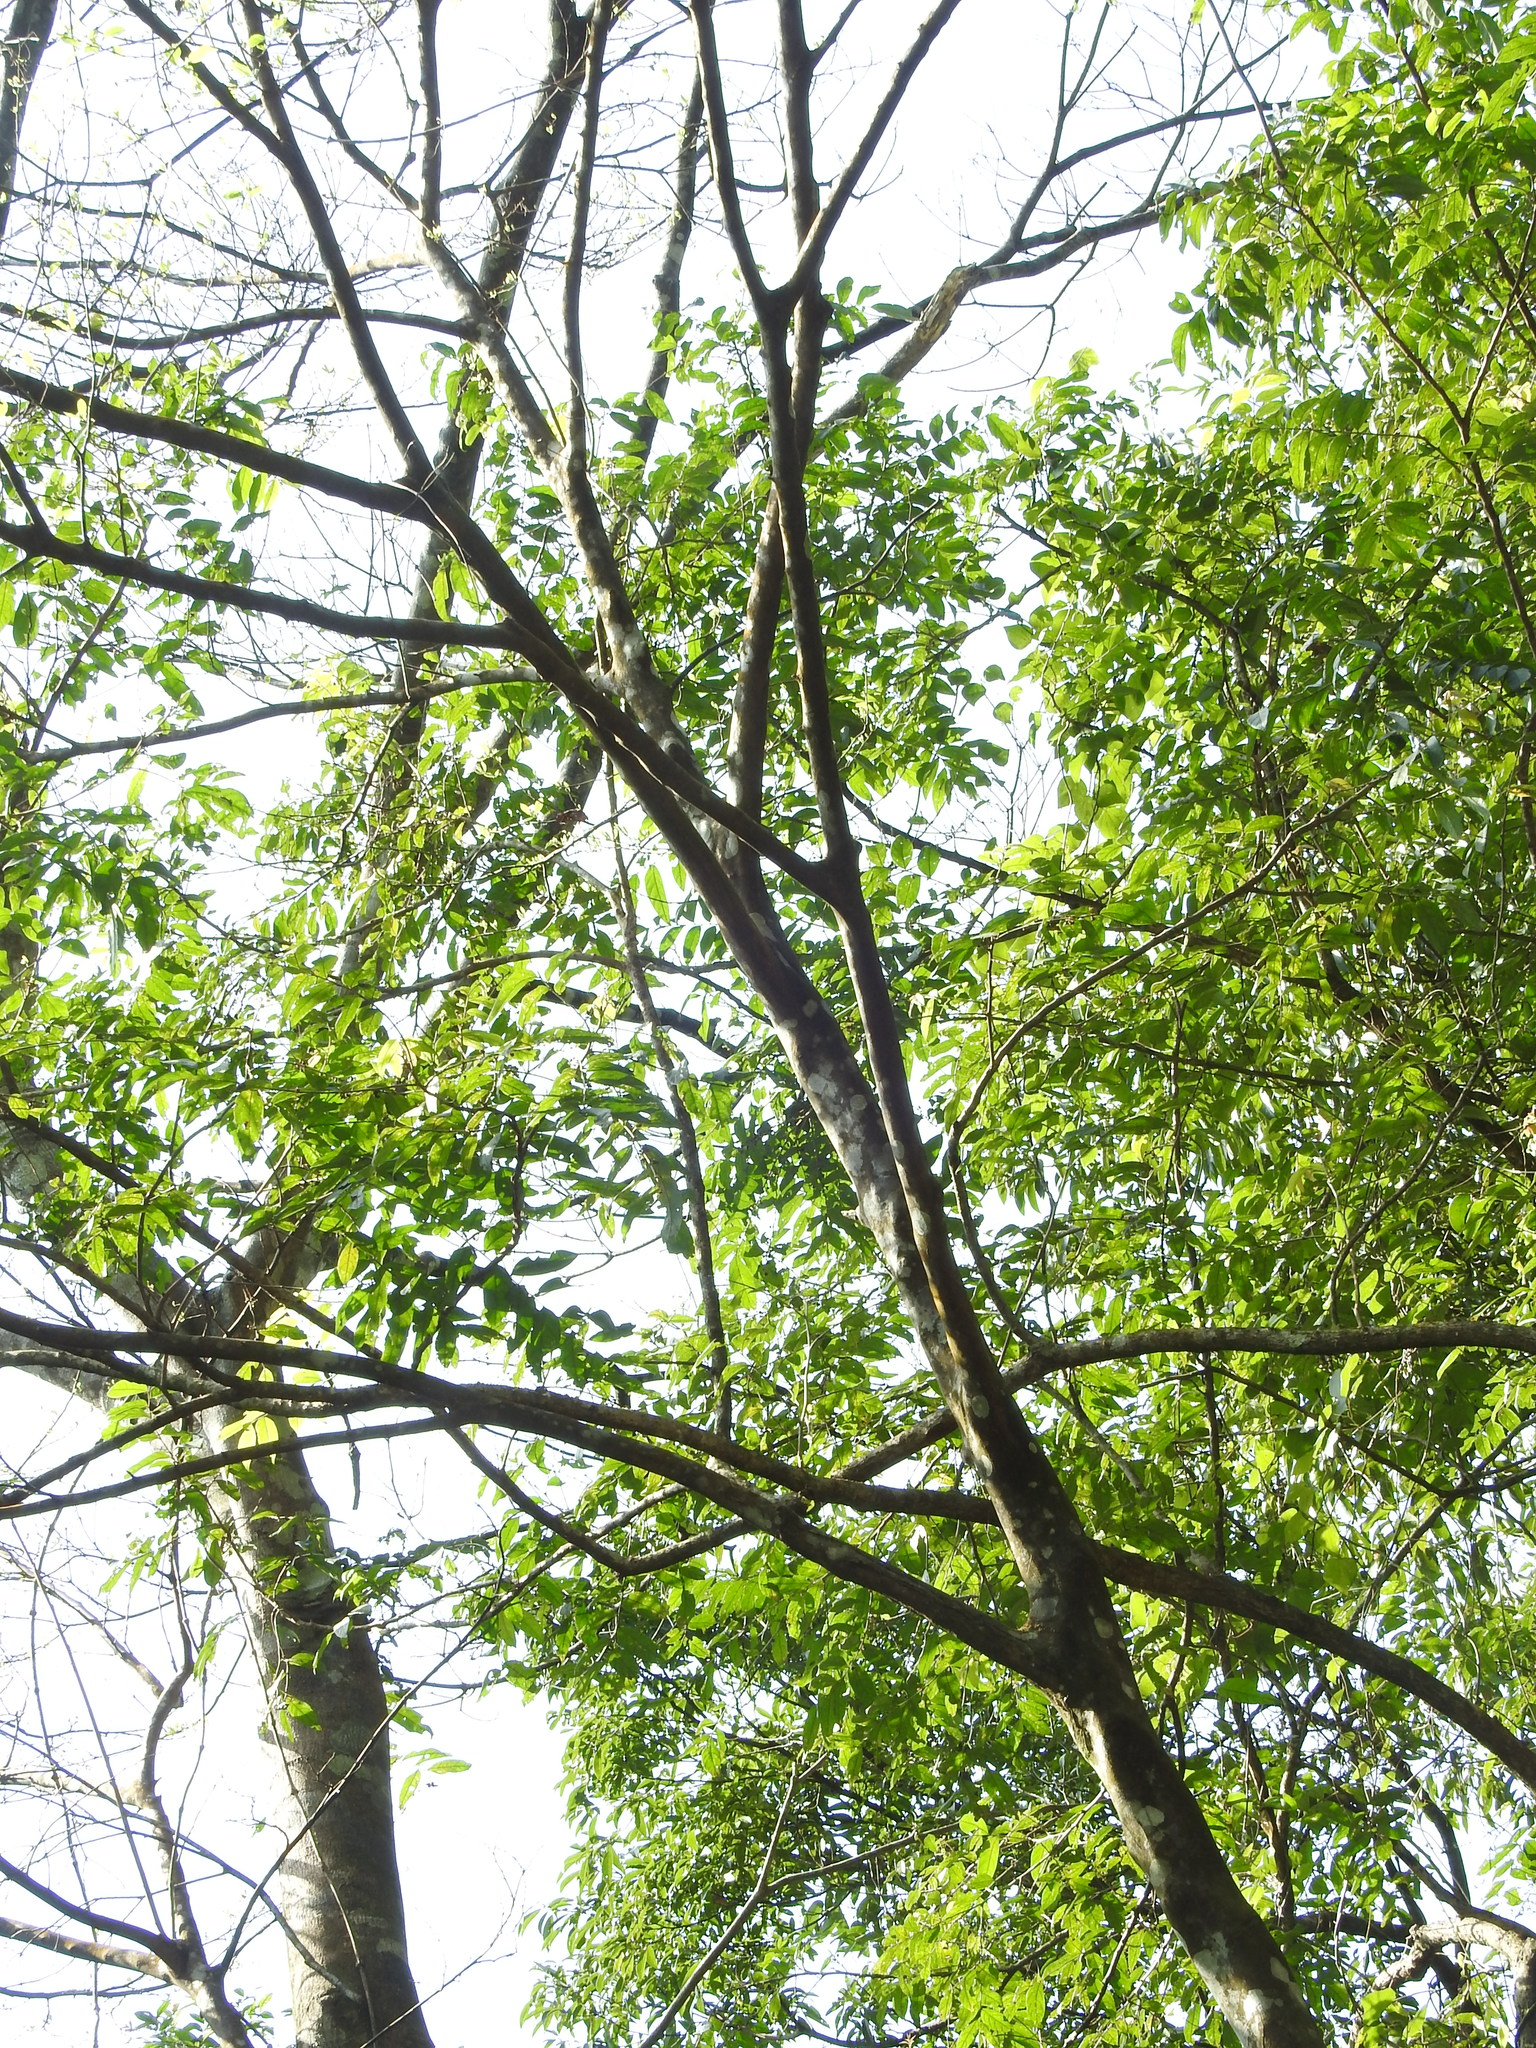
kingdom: Plantae
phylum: Tracheophyta
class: Magnoliopsida
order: Ericales
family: Styracaceae
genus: Styrax
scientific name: Styrax formosanus
